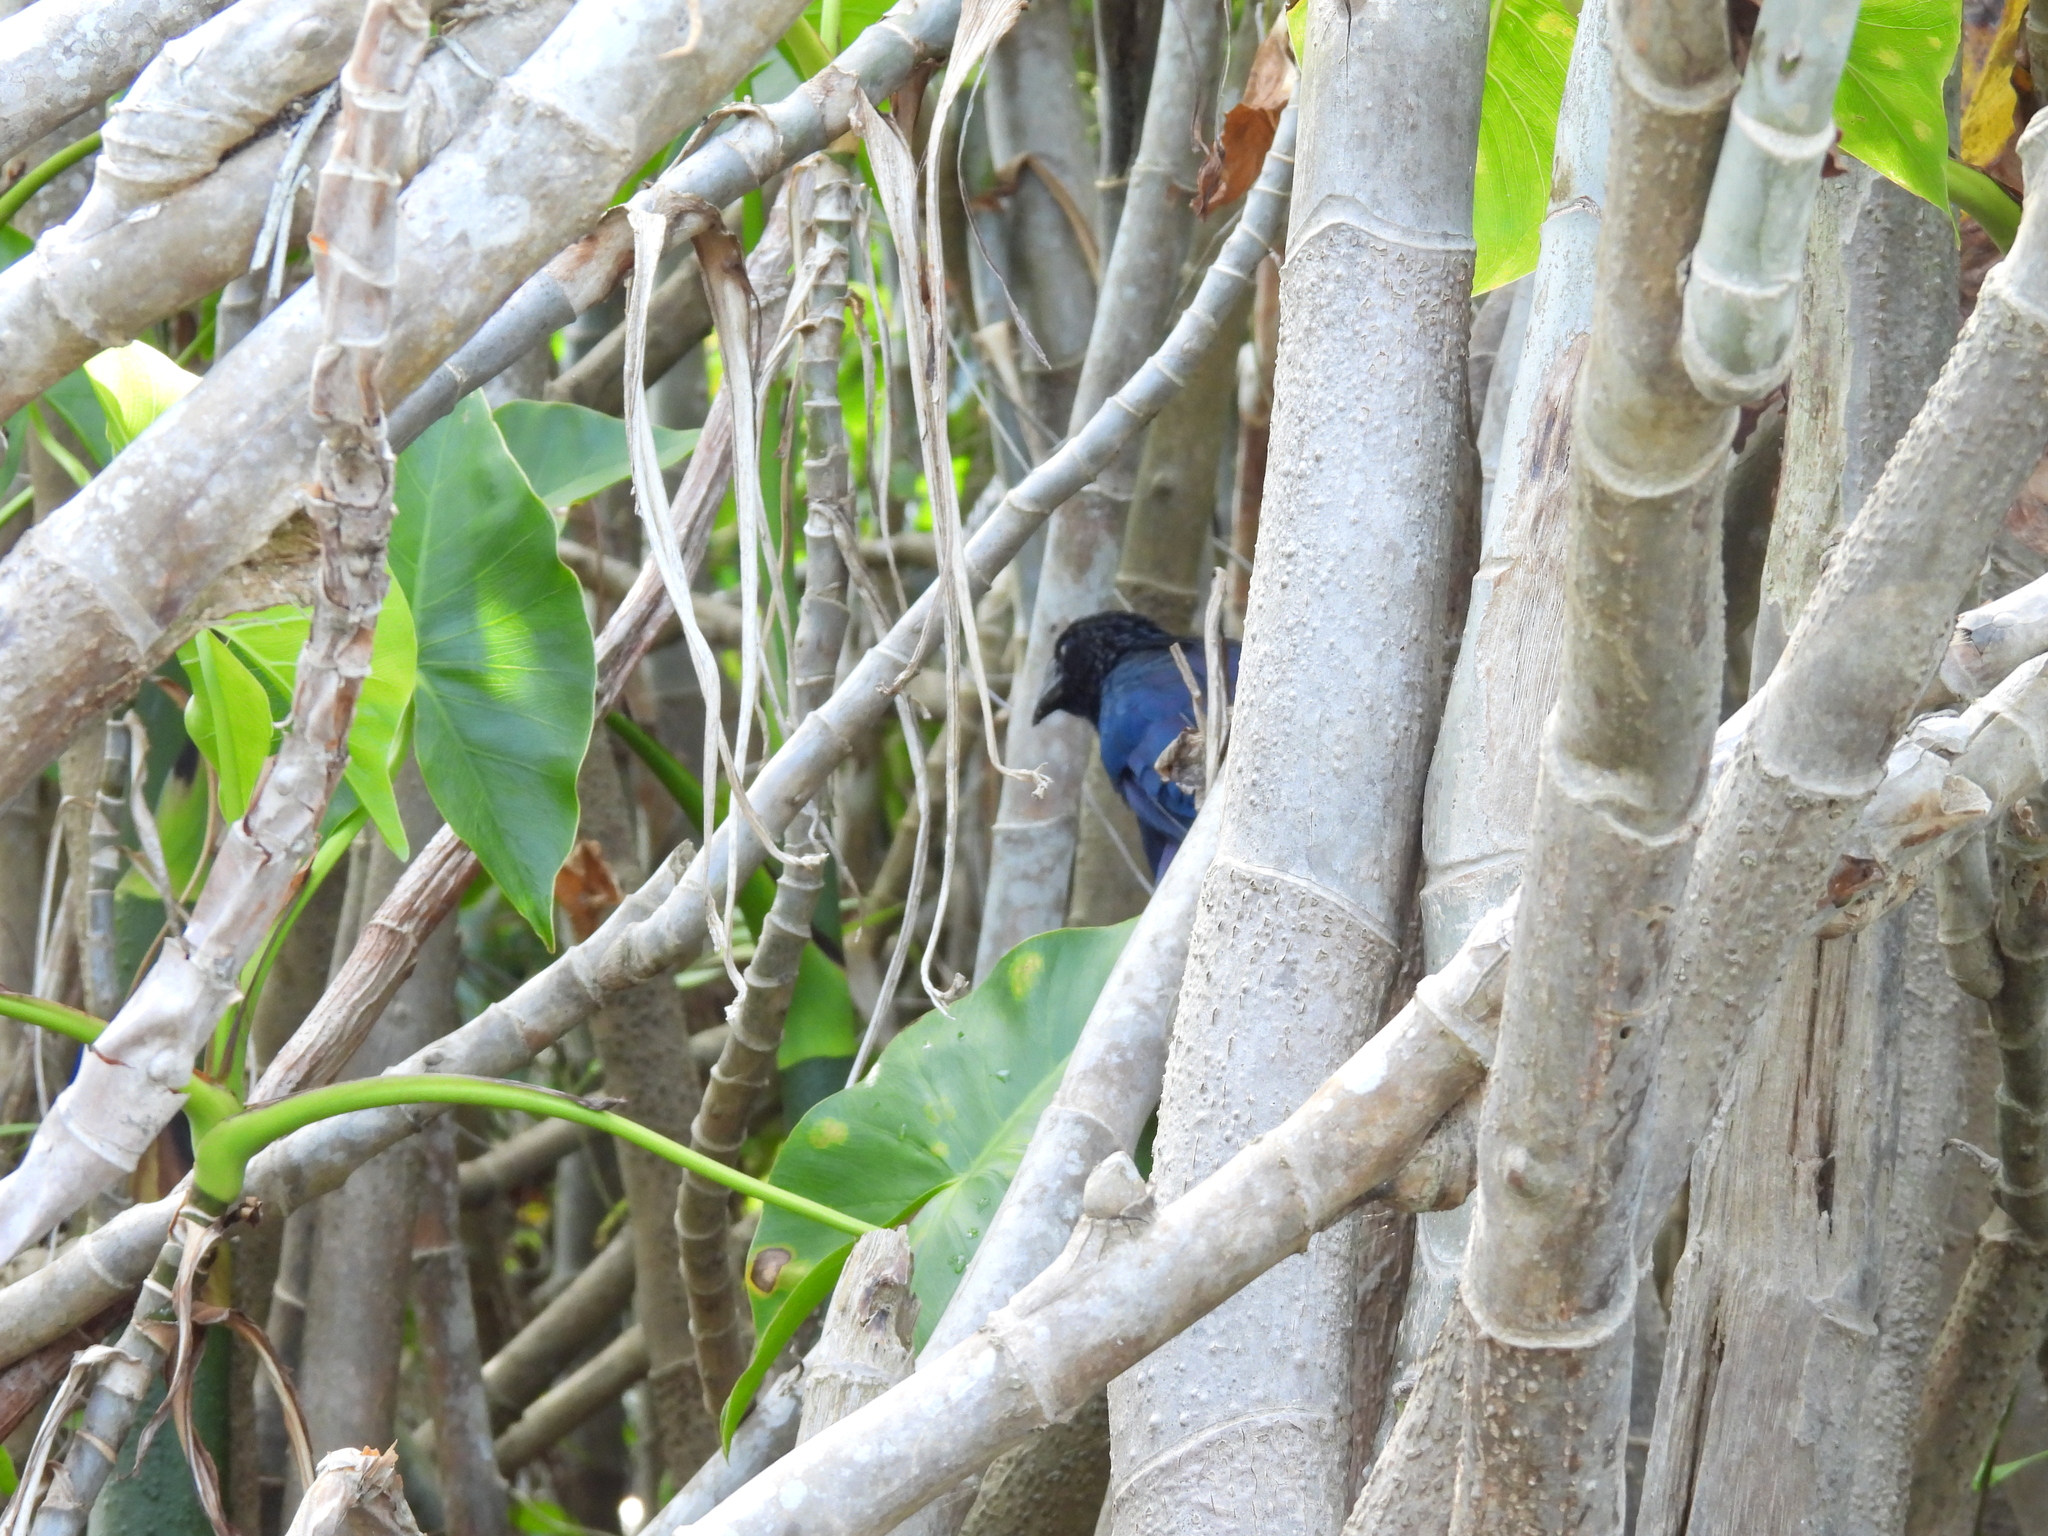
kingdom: Animalia
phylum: Chordata
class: Aves
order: Cuculiformes
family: Cuculidae
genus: Crotophaga
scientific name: Crotophaga major
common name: Greater ani
